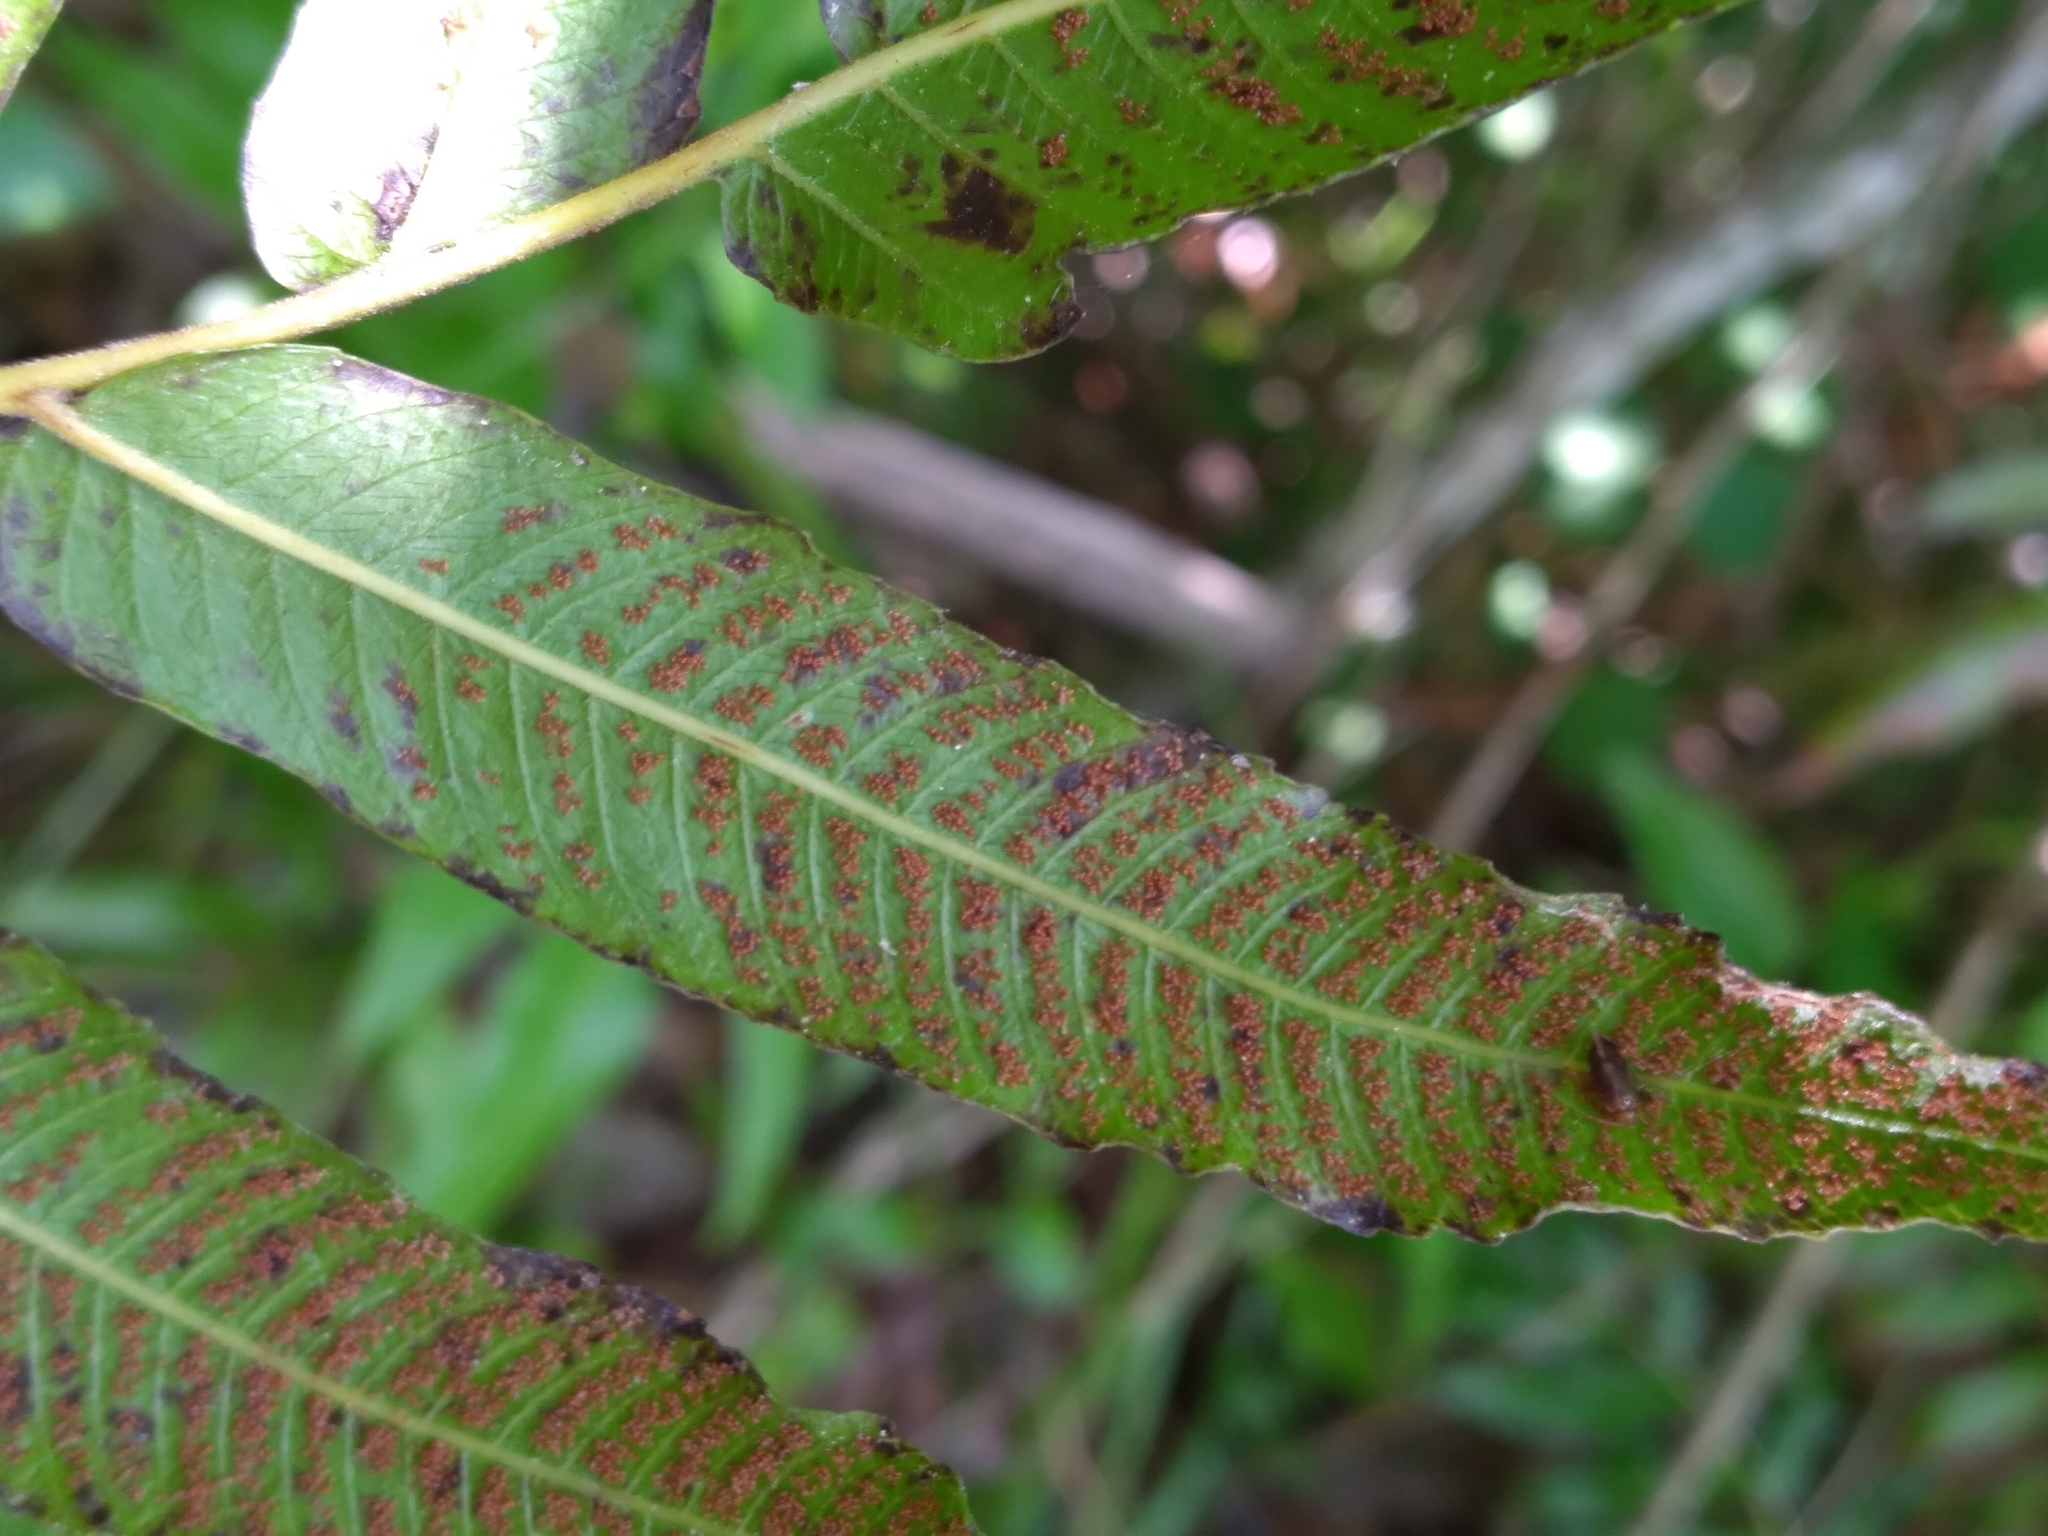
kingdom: Plantae
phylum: Tracheophyta
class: Polypodiopsida
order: Polypodiales
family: Thelypteridaceae
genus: Meniscium
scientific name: Meniscium serratum
